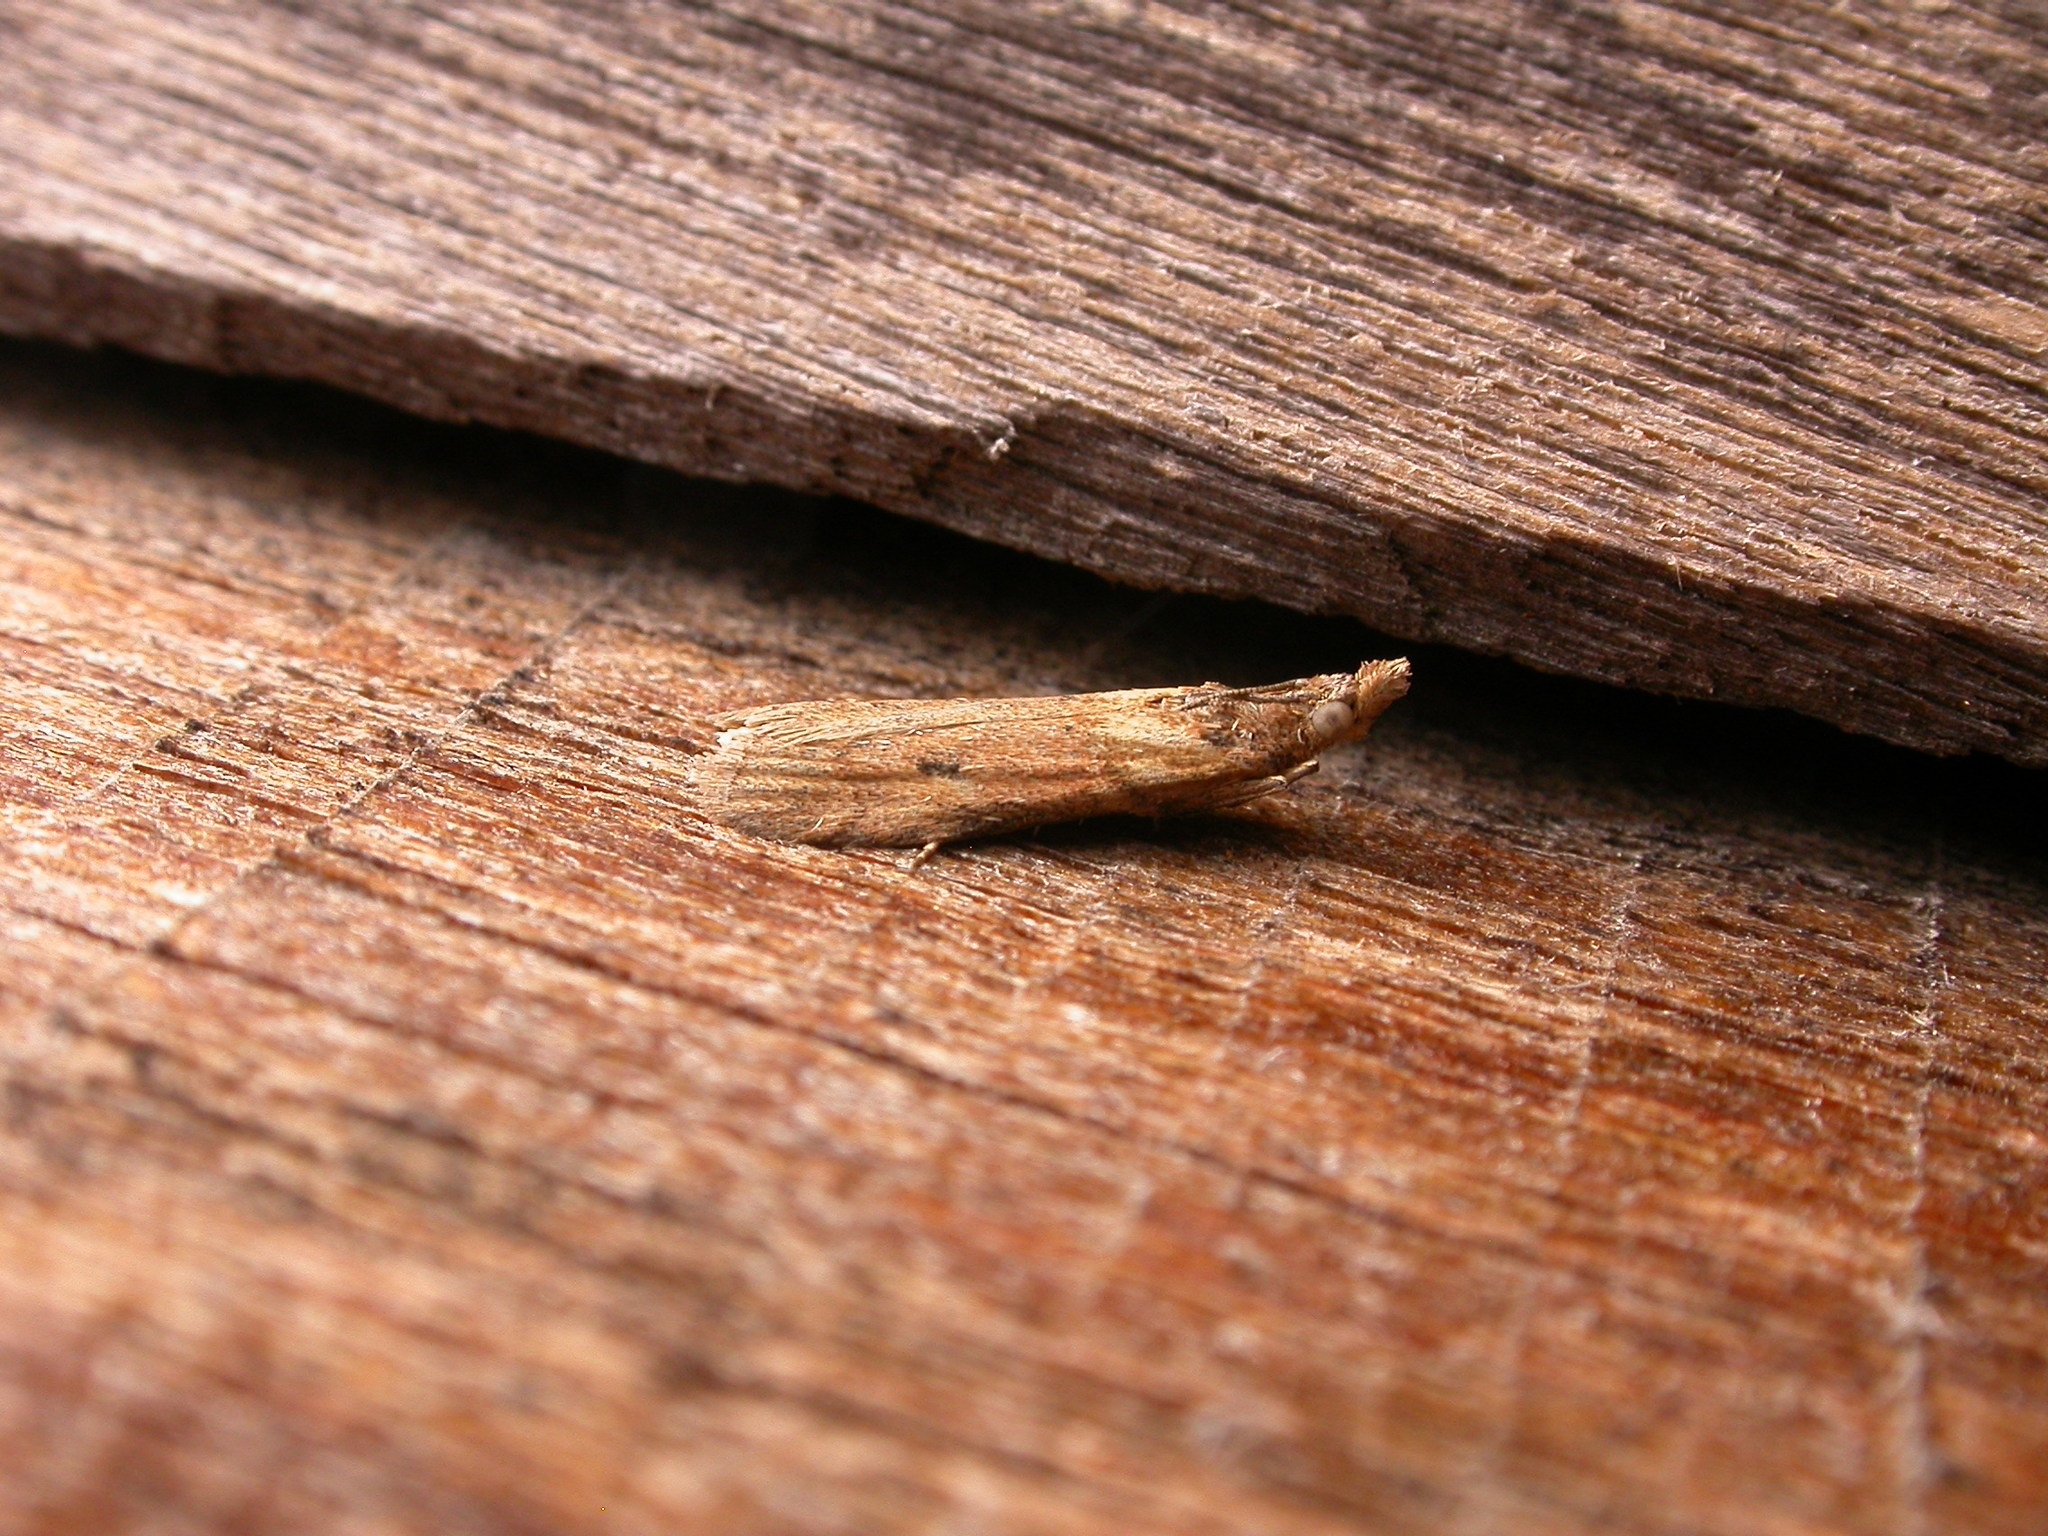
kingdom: Animalia
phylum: Arthropoda
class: Insecta
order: Lepidoptera
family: Crambidae
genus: Nechilo
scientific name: Nechilo macrogona
